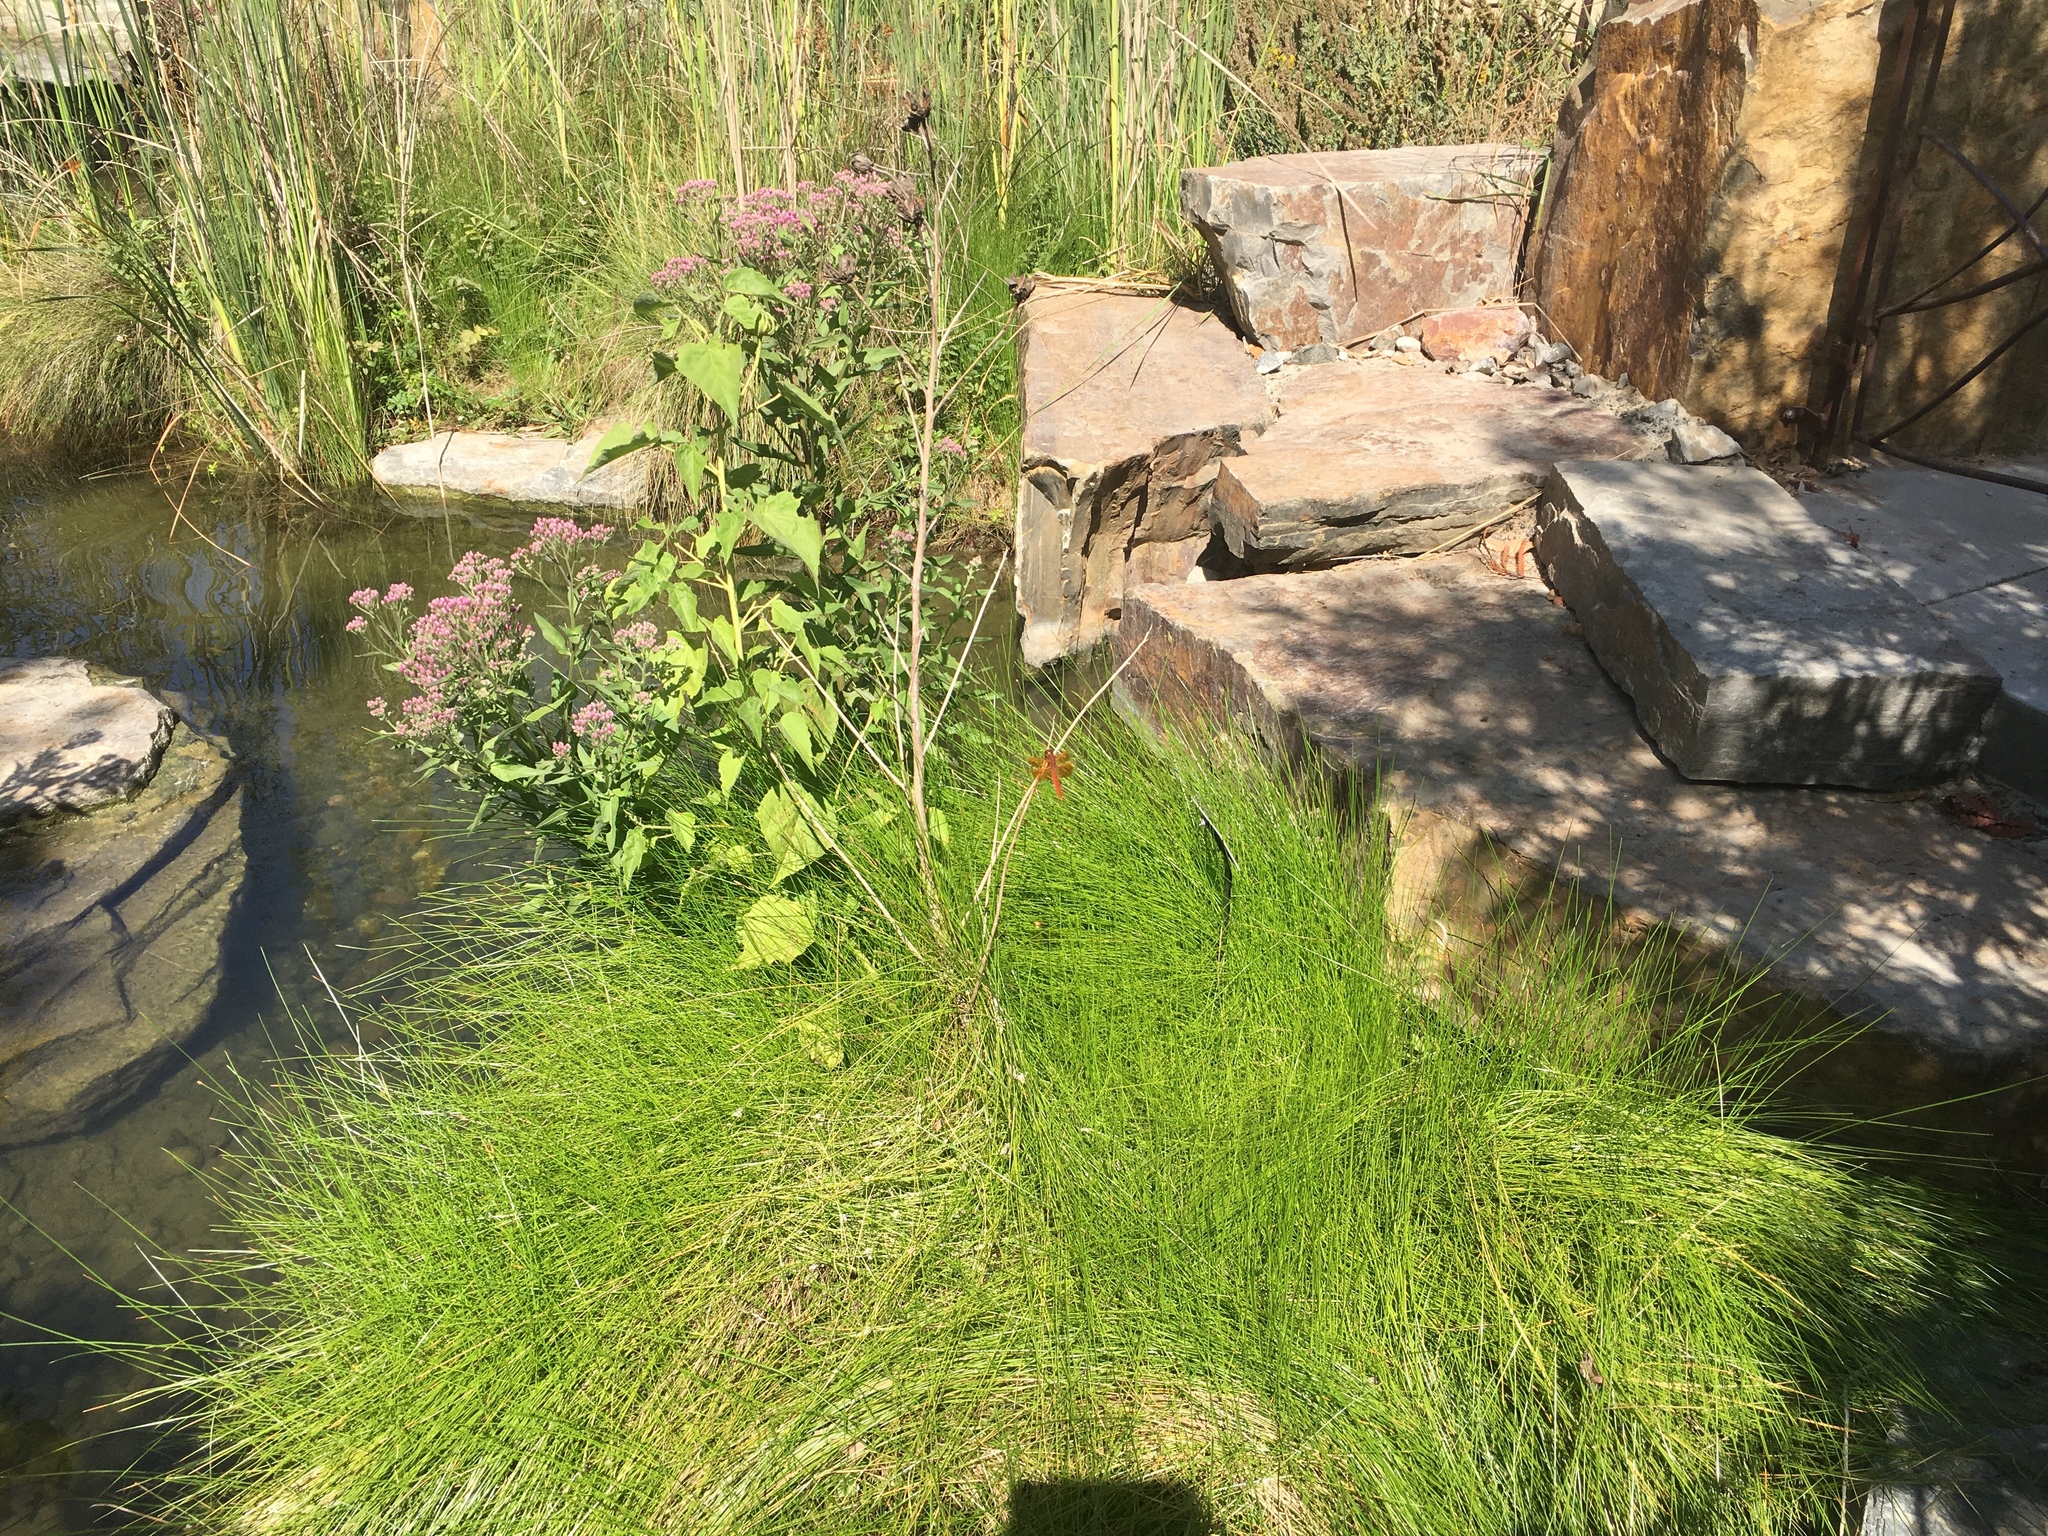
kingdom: Animalia
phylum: Arthropoda
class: Insecta
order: Odonata
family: Libellulidae
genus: Libellula
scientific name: Libellula saturata
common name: Flame skimmer
